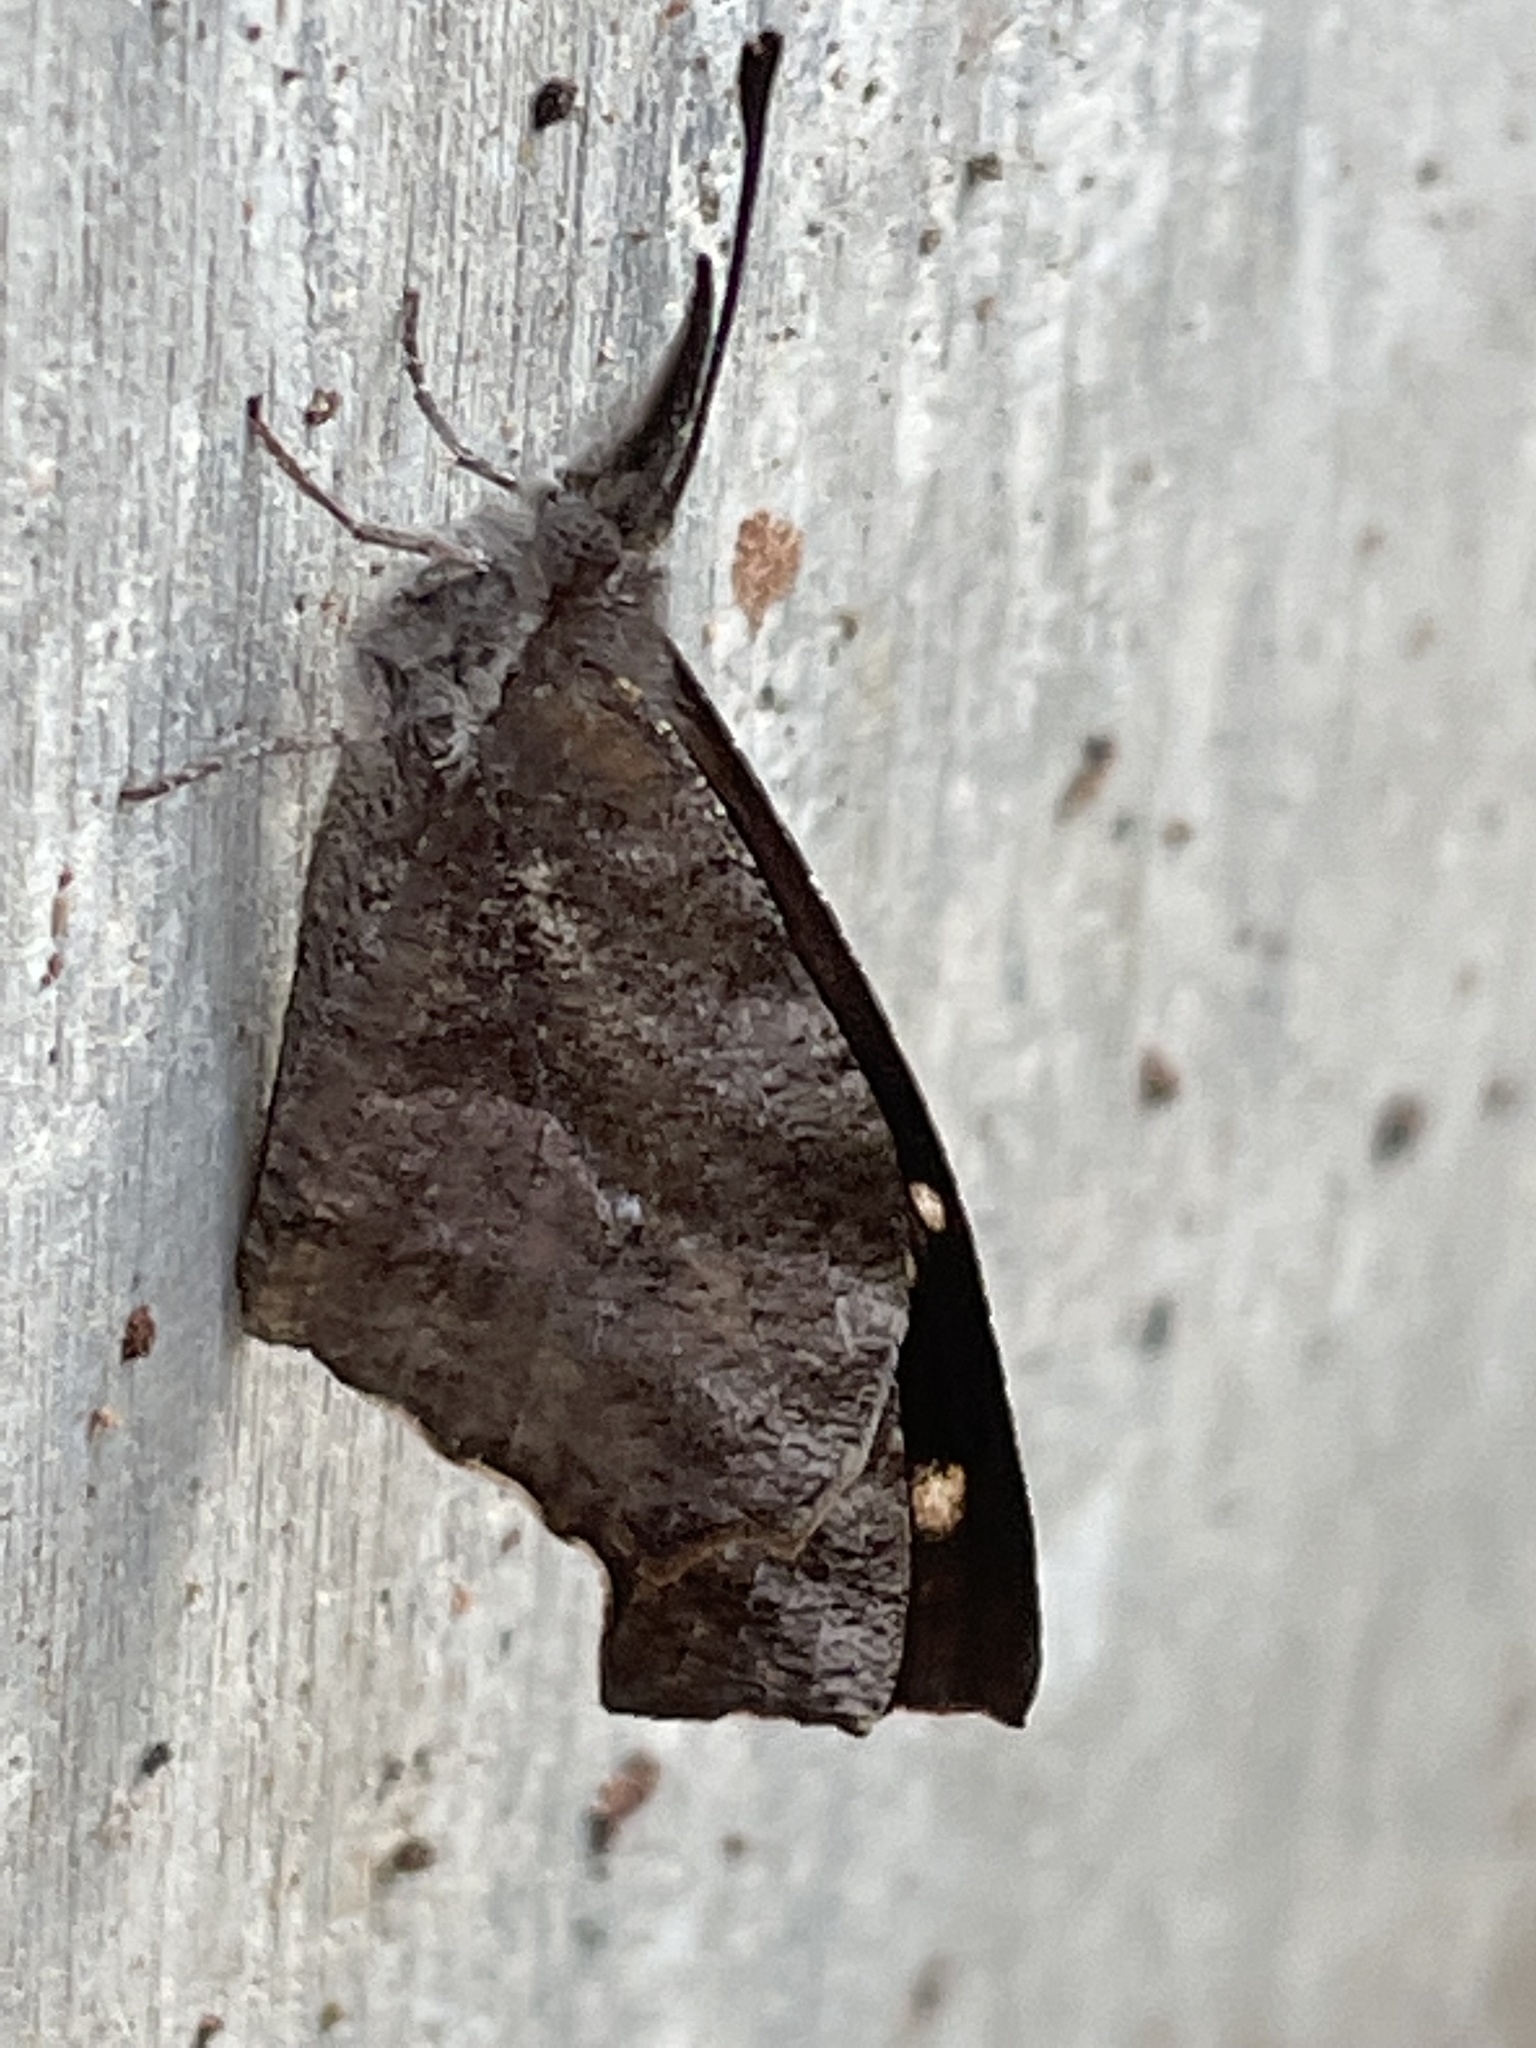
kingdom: Animalia
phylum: Arthropoda
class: Insecta
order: Lepidoptera
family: Nymphalidae
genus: Libytheana
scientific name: Libytheana carinenta
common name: American snout
